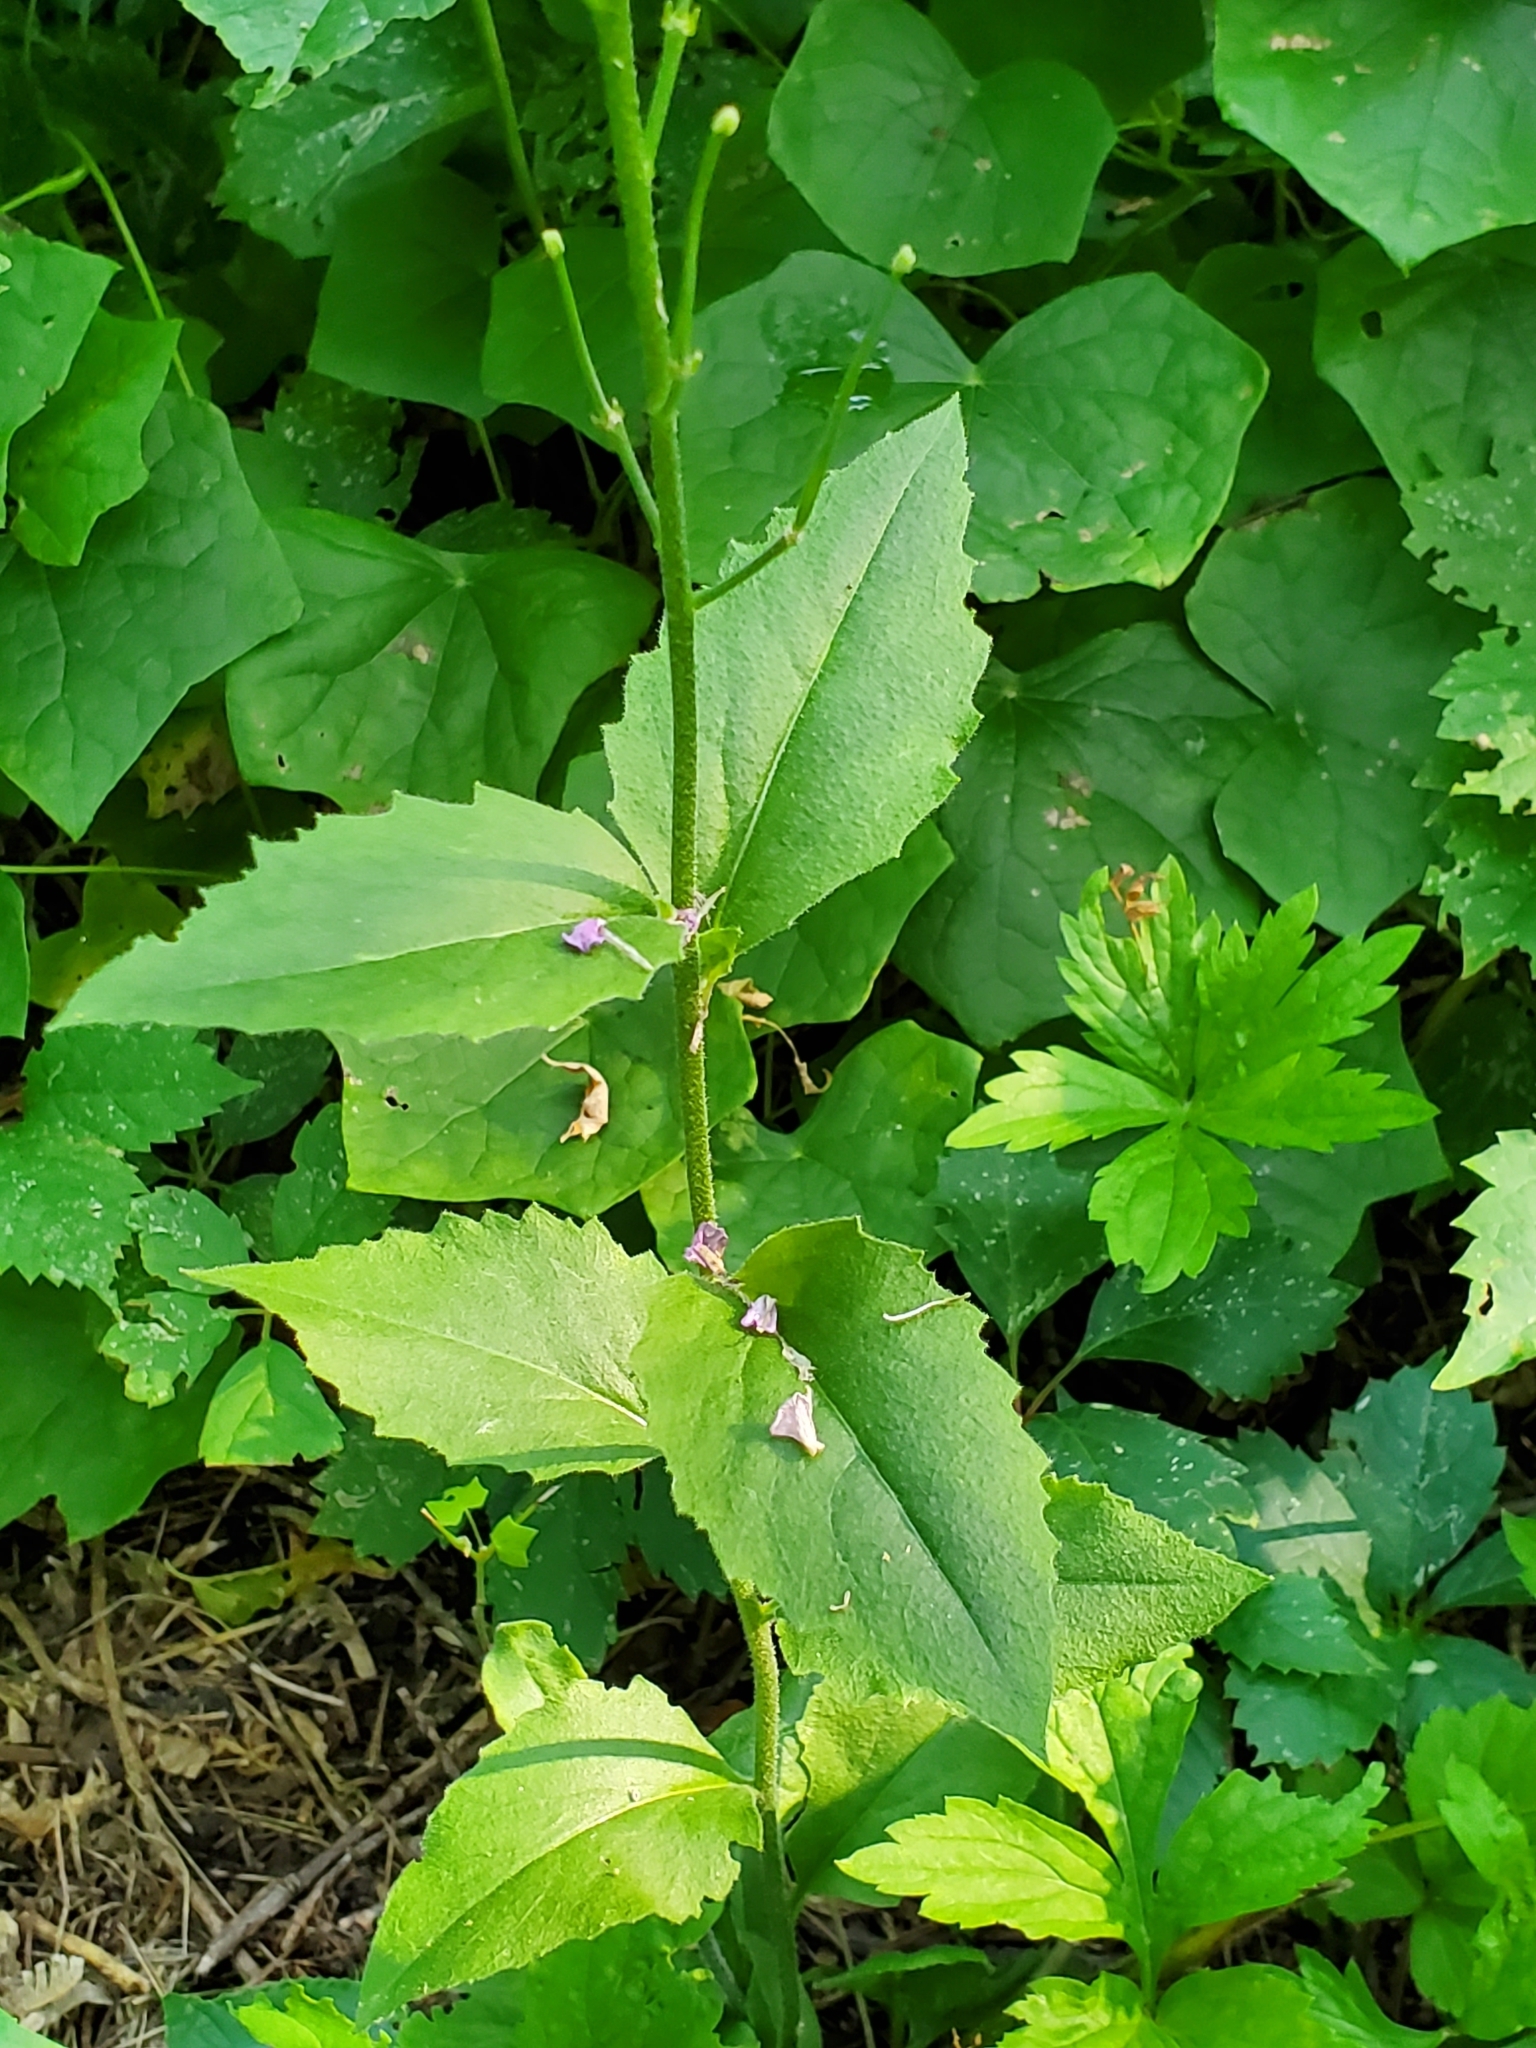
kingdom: Plantae
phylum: Tracheophyta
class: Magnoliopsida
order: Brassicales
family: Brassicaceae
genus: Hesperis
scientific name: Hesperis matronalis
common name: Dame's-violet
